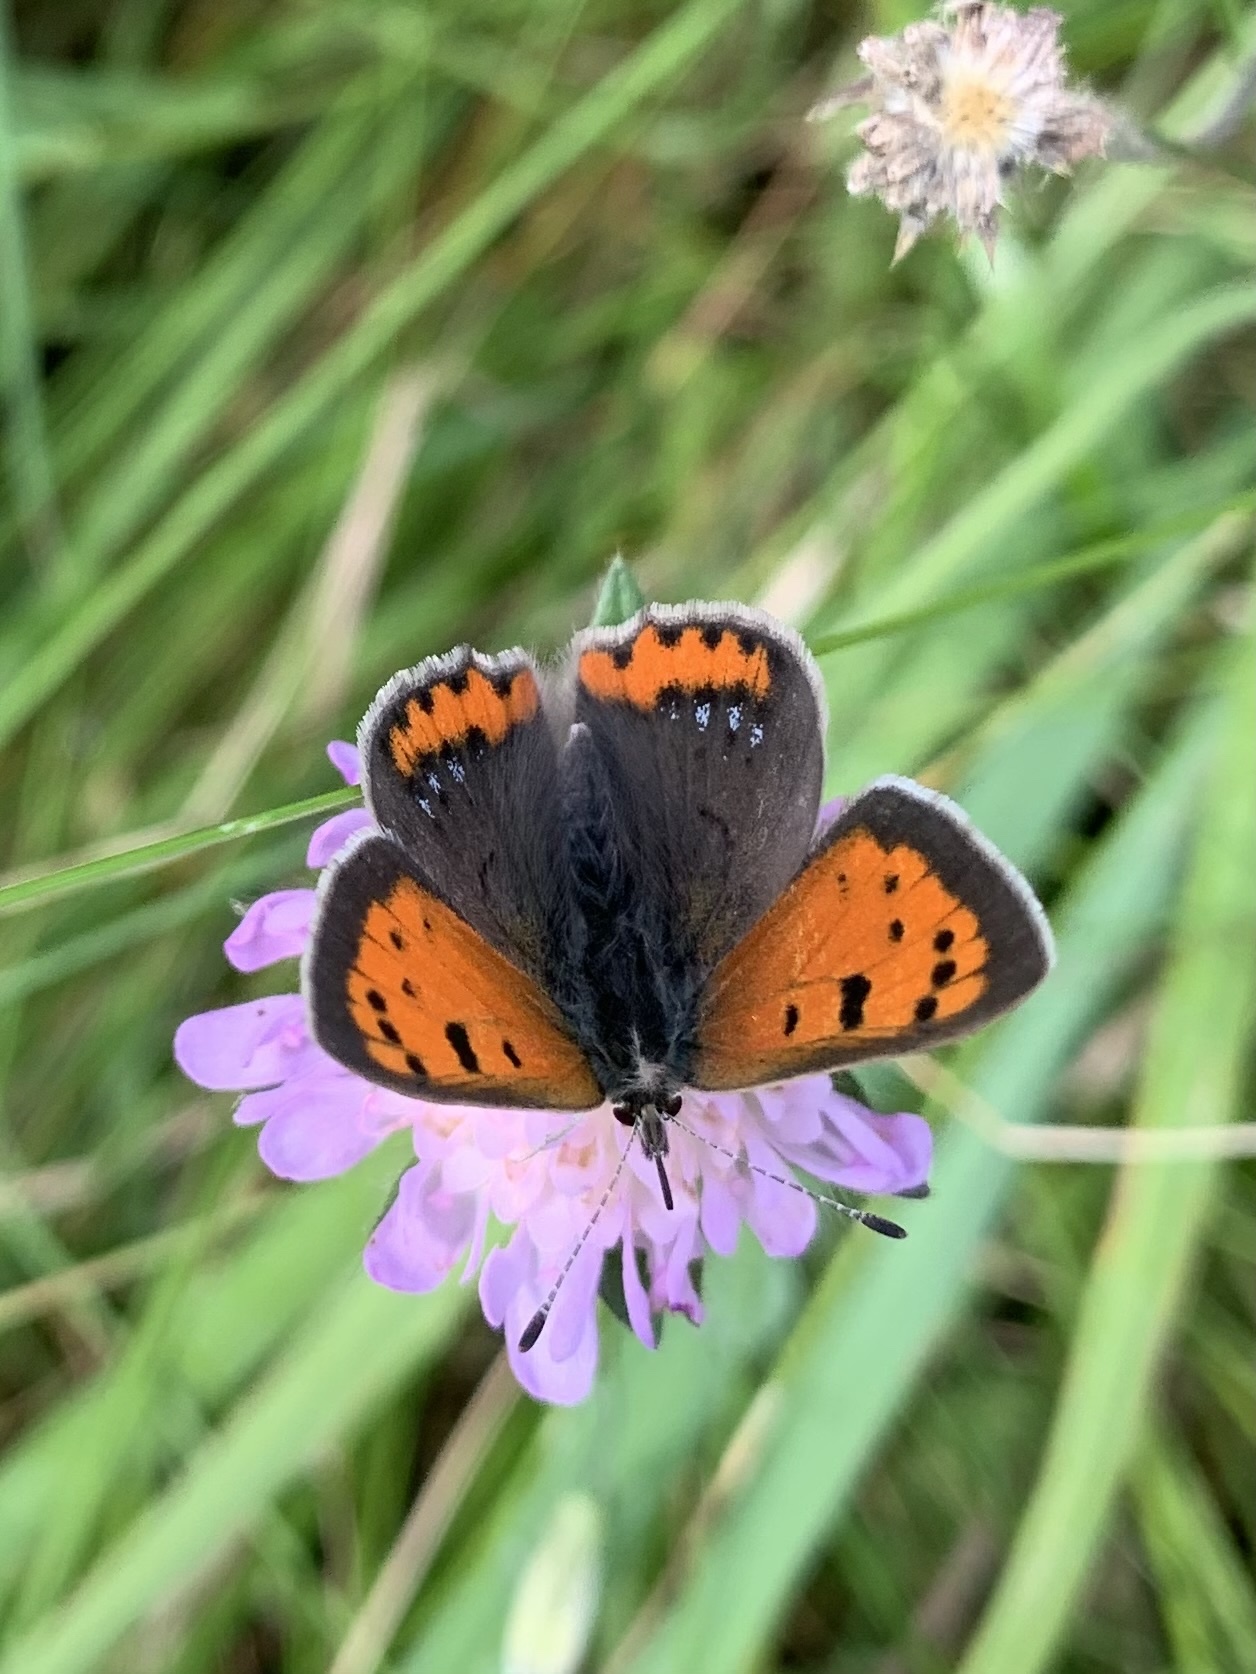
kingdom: Animalia
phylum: Arthropoda
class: Insecta
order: Lepidoptera
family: Lycaenidae
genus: Lycaena
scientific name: Lycaena phlaeas
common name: Small copper
